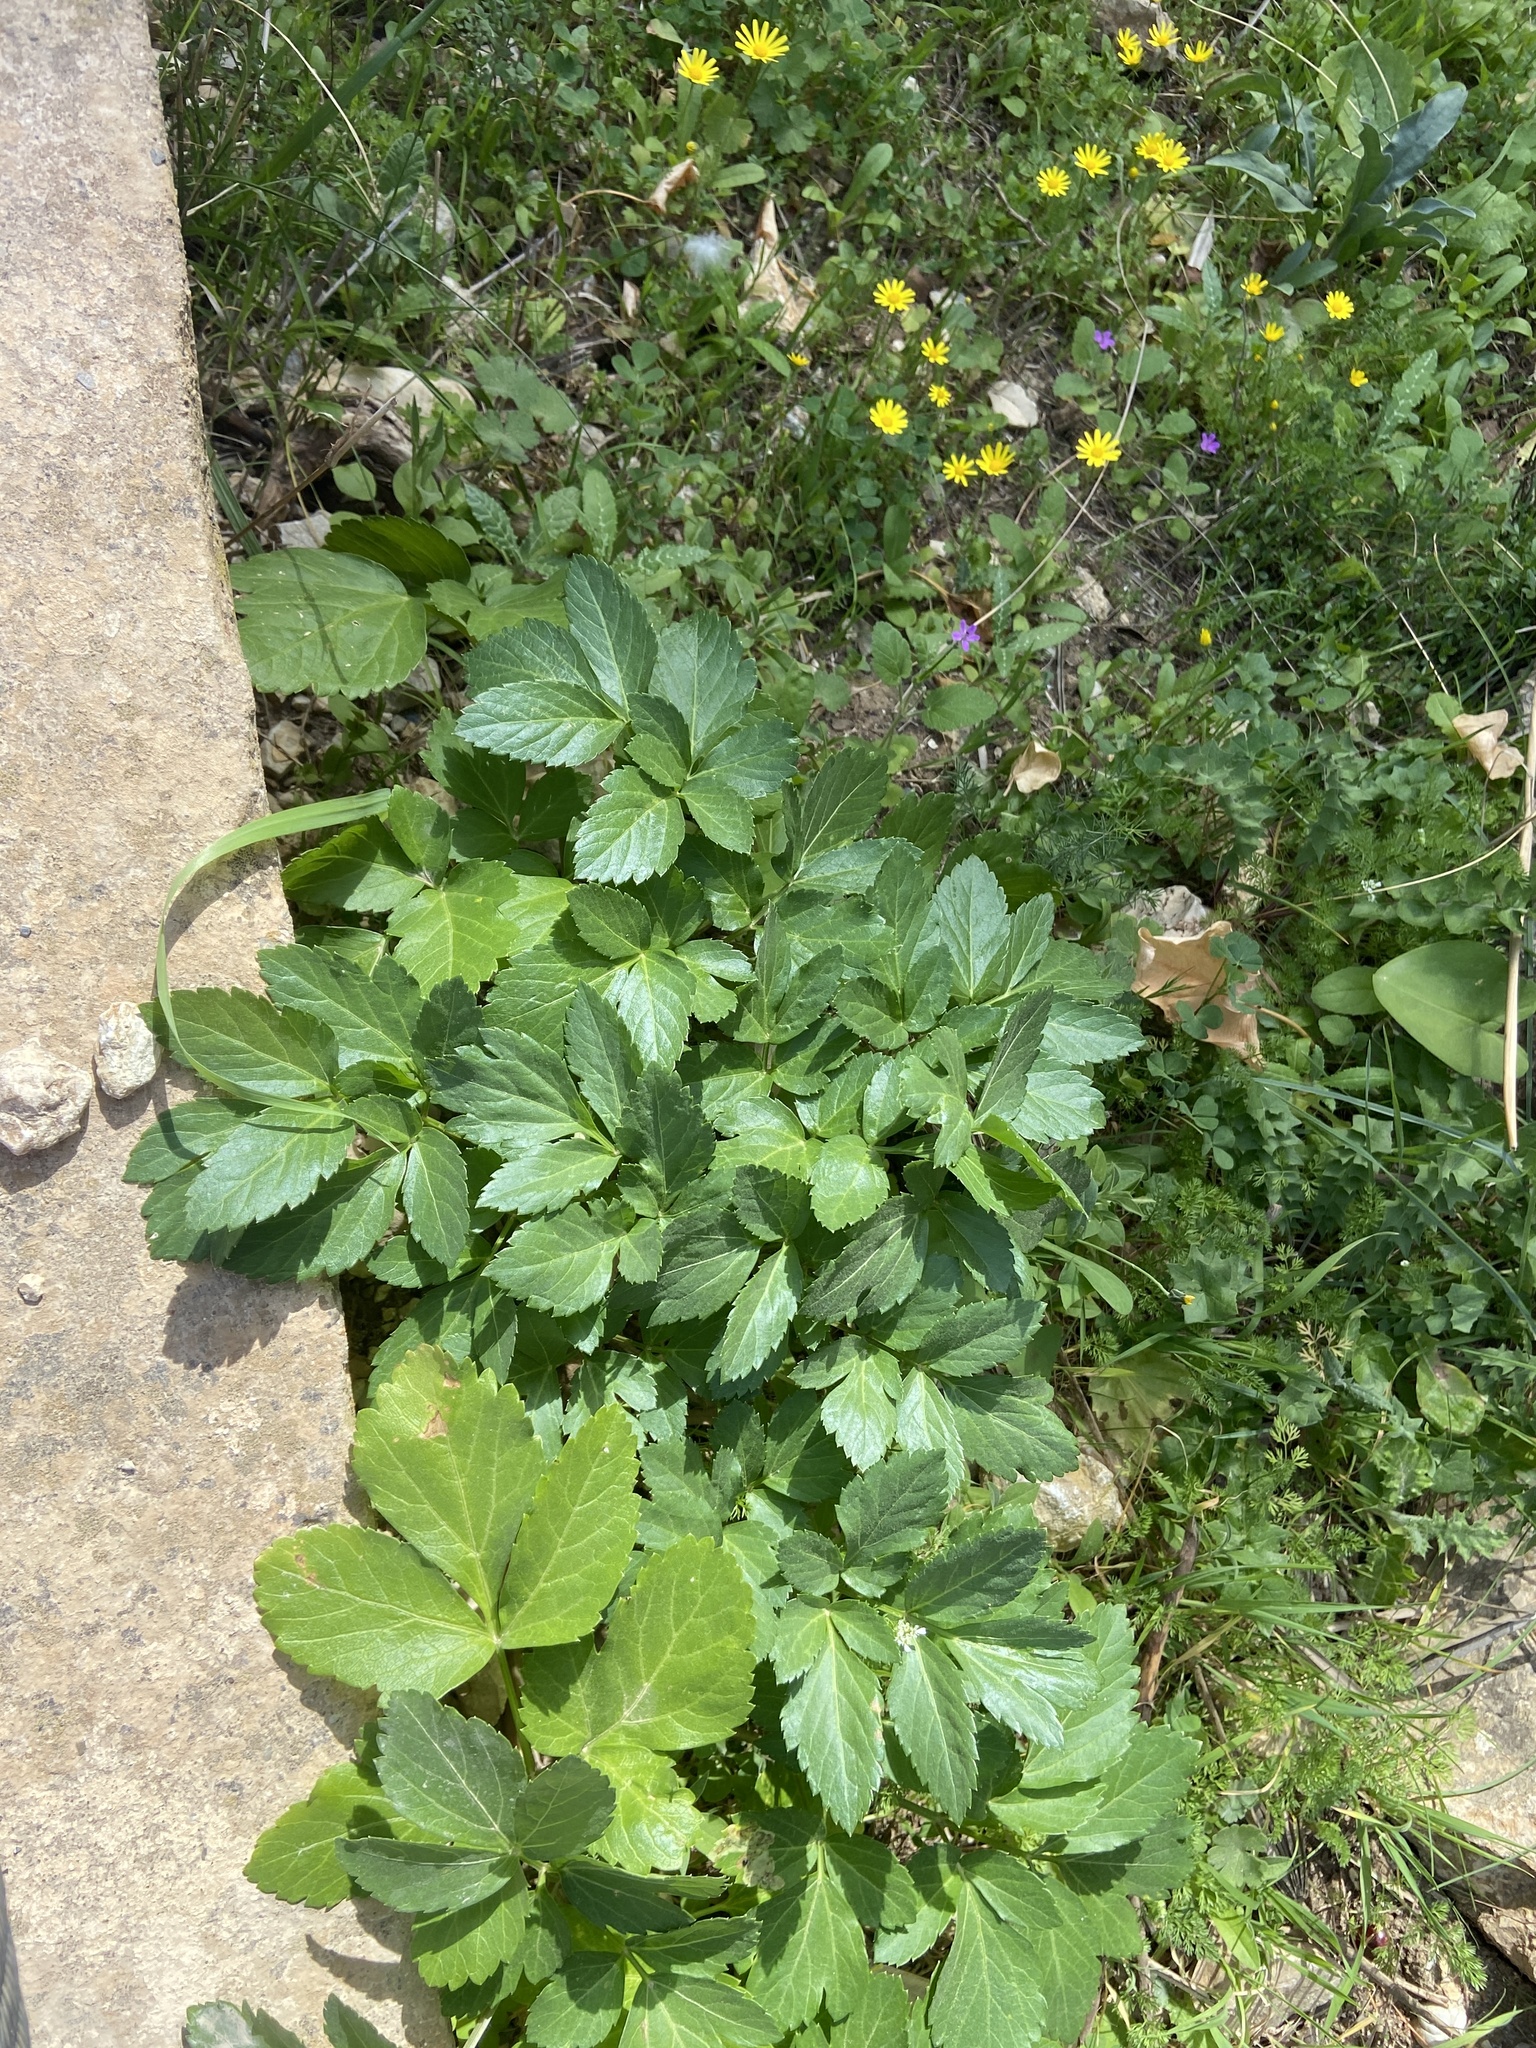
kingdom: Plantae
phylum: Tracheophyta
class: Magnoliopsida
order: Apiales
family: Apiaceae
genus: Smyrnium
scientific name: Smyrnium olusatrum
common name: Alexanders
